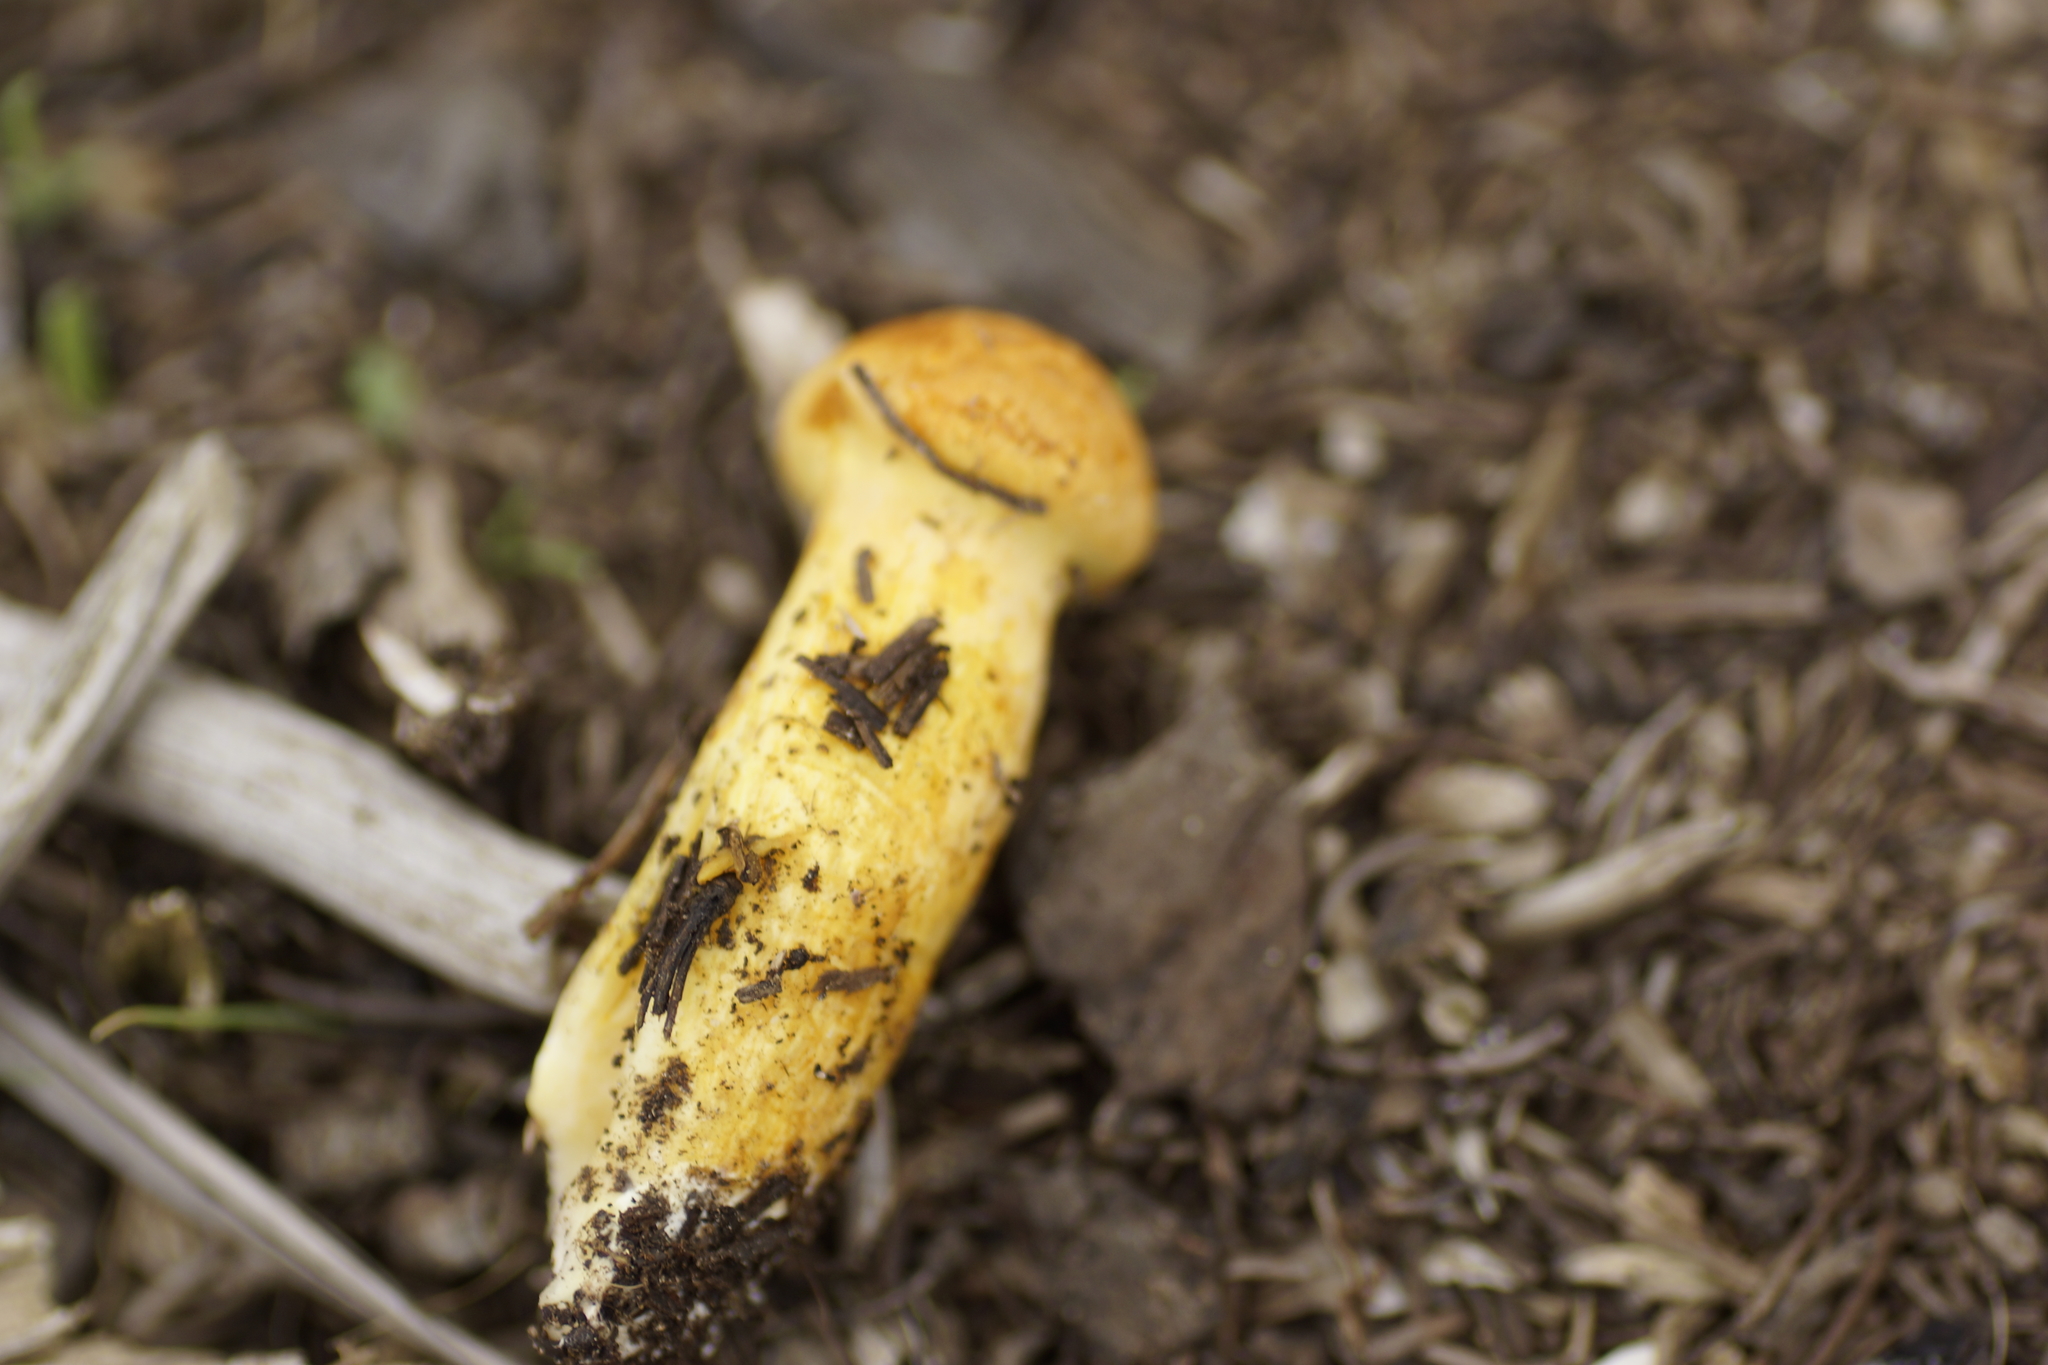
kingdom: Fungi
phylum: Basidiomycota
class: Agaricomycetes
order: Agaricales
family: Hymenogastraceae
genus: Gymnopilus
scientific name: Gymnopilus junonius
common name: Spectacular rustgill
